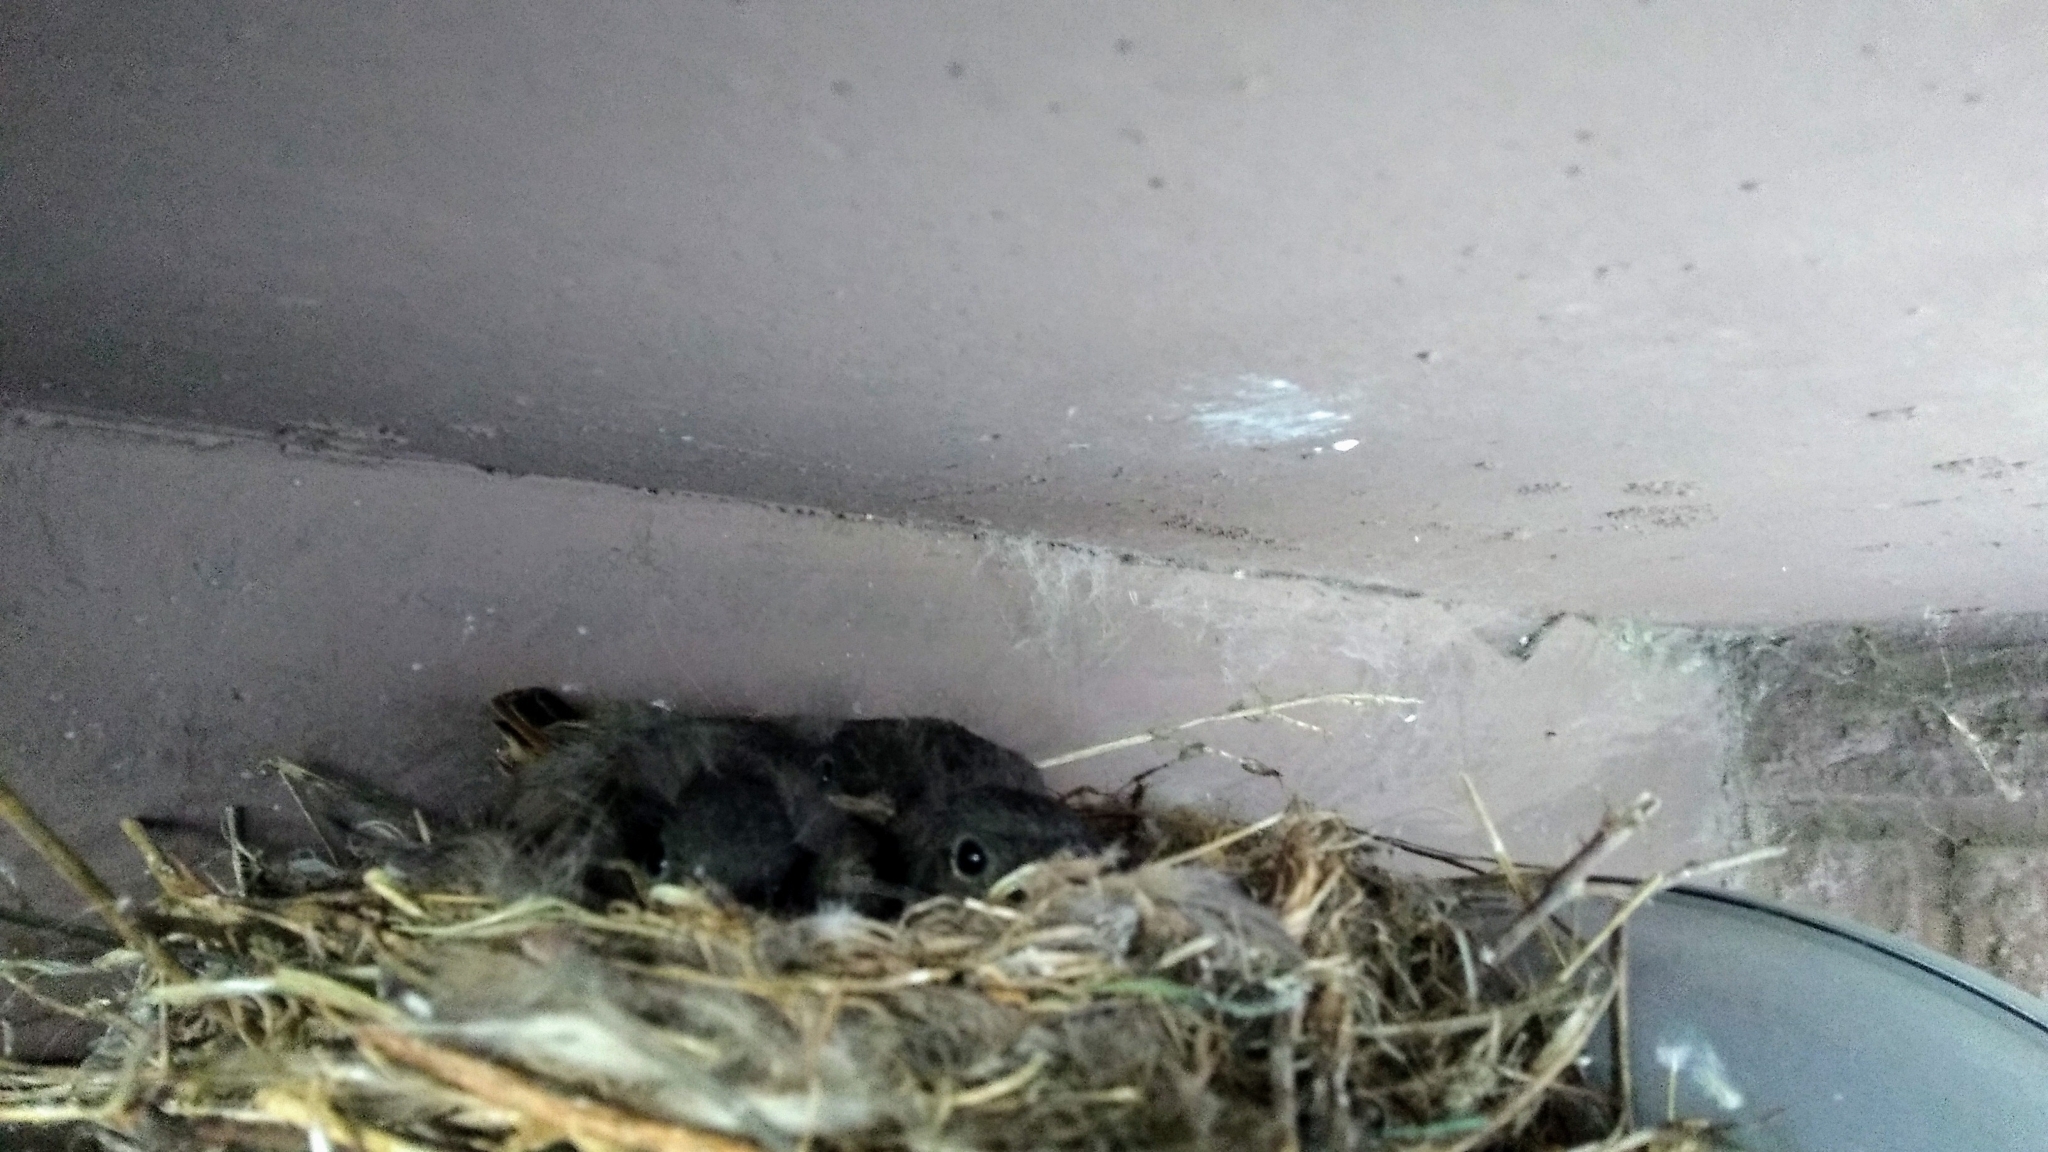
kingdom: Animalia
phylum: Chordata
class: Aves
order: Passeriformes
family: Muscicapidae
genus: Phoenicurus
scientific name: Phoenicurus ochruros
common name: Black redstart
